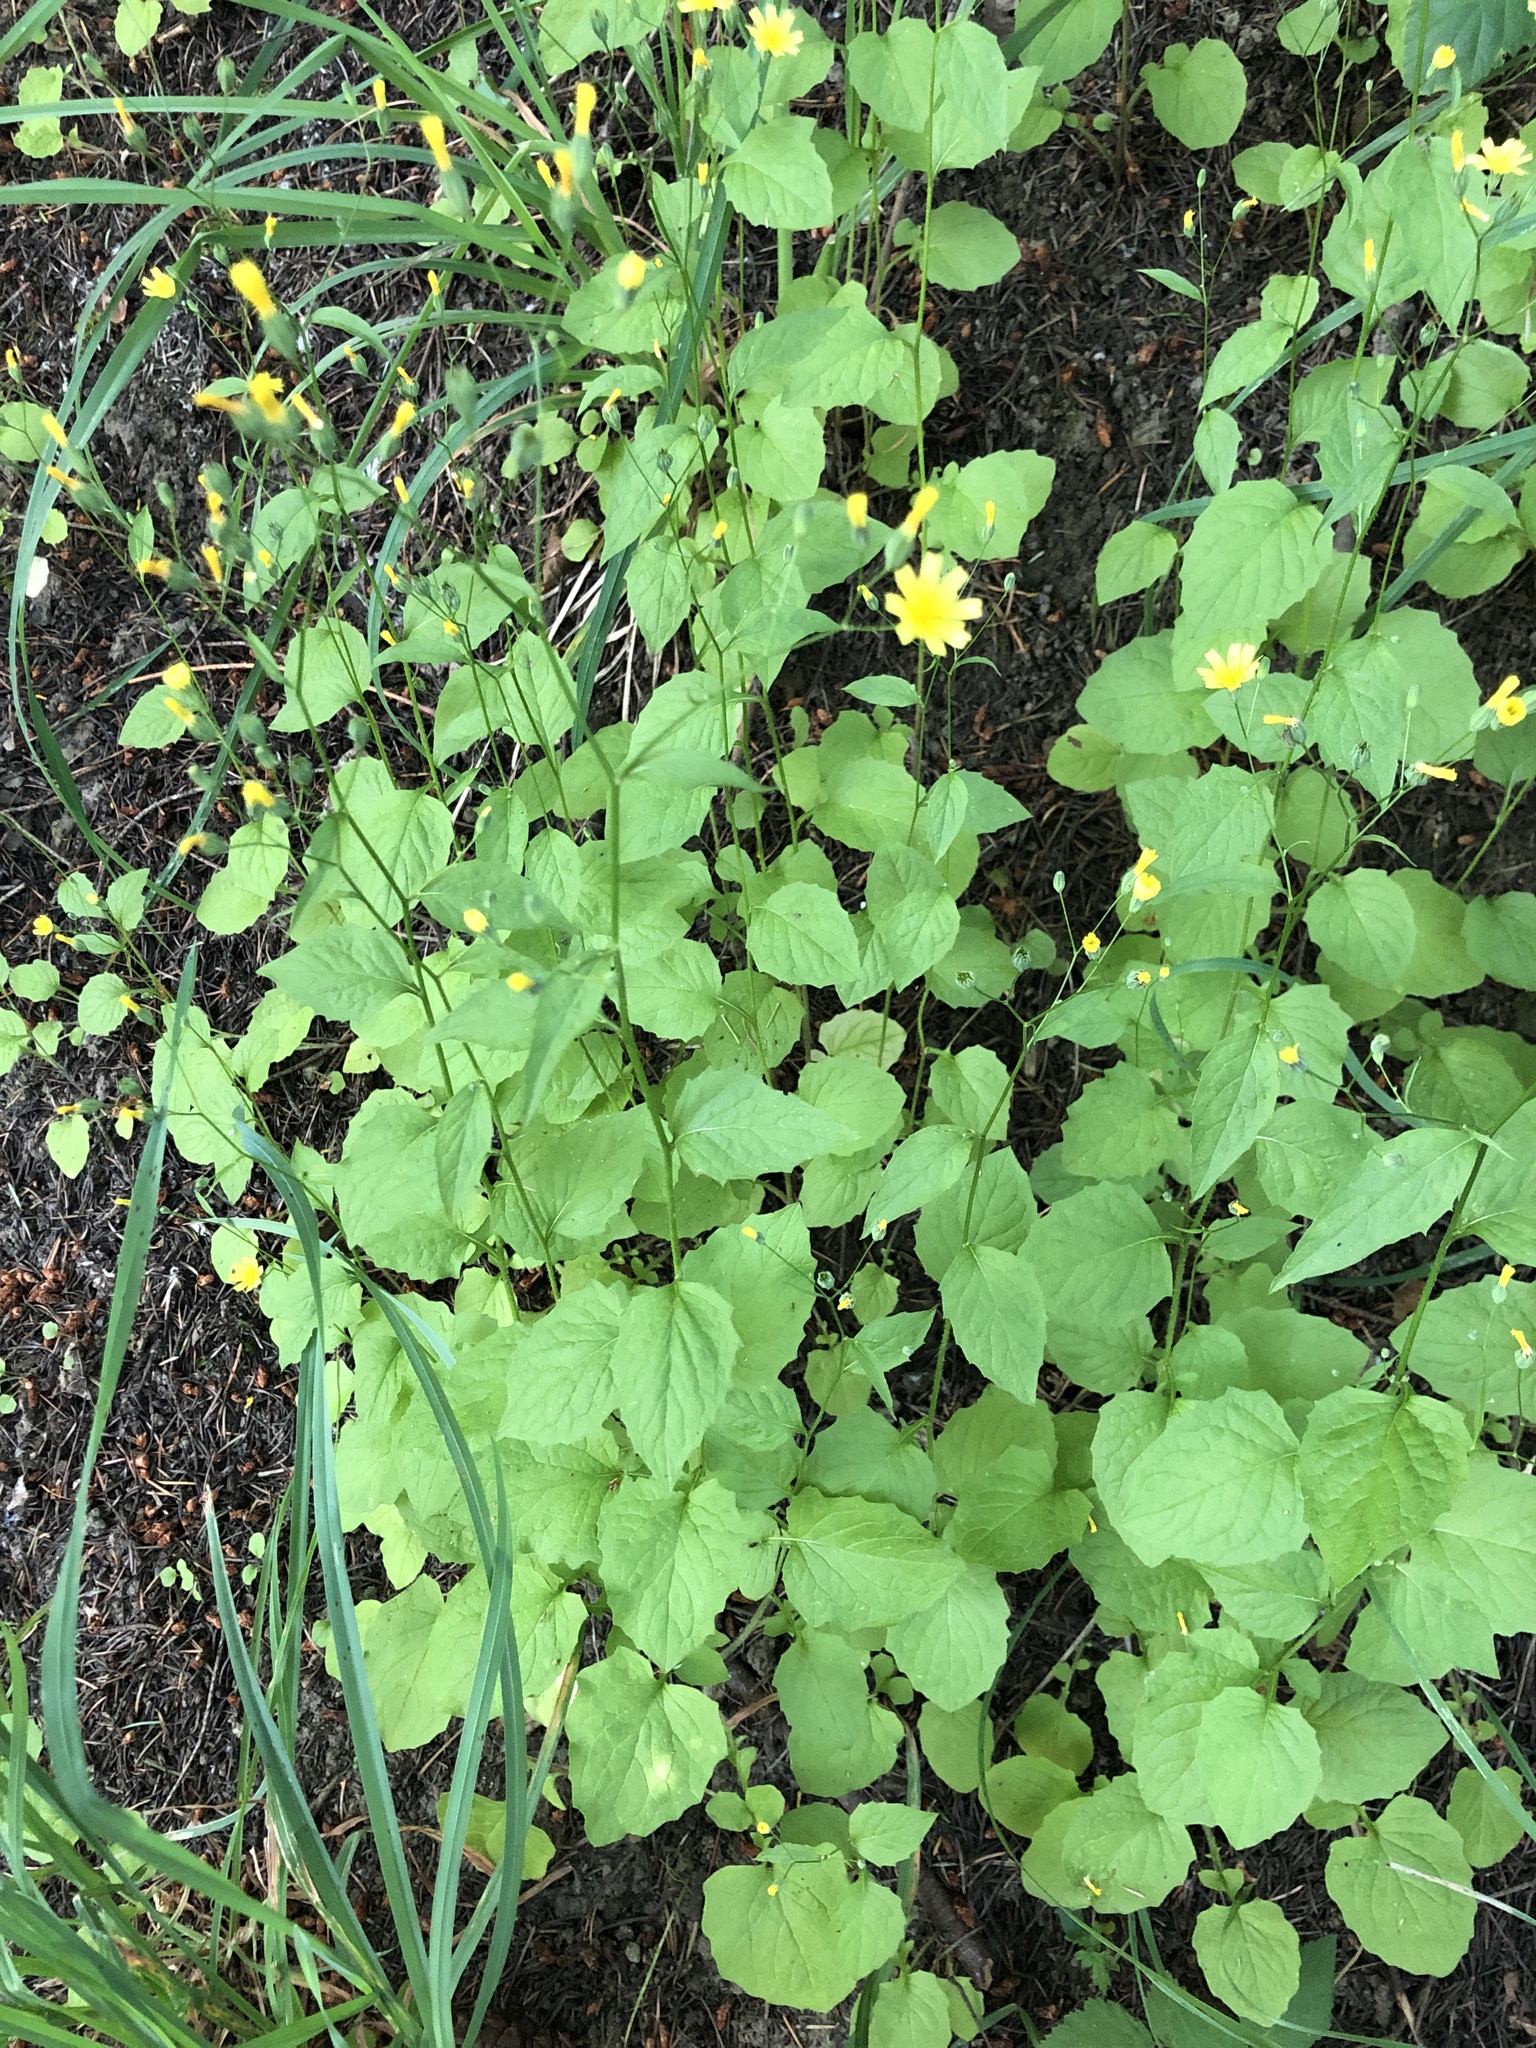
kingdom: Plantae
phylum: Tracheophyta
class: Magnoliopsida
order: Asterales
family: Asteraceae
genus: Lapsana
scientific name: Lapsana communis
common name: Nipplewort
